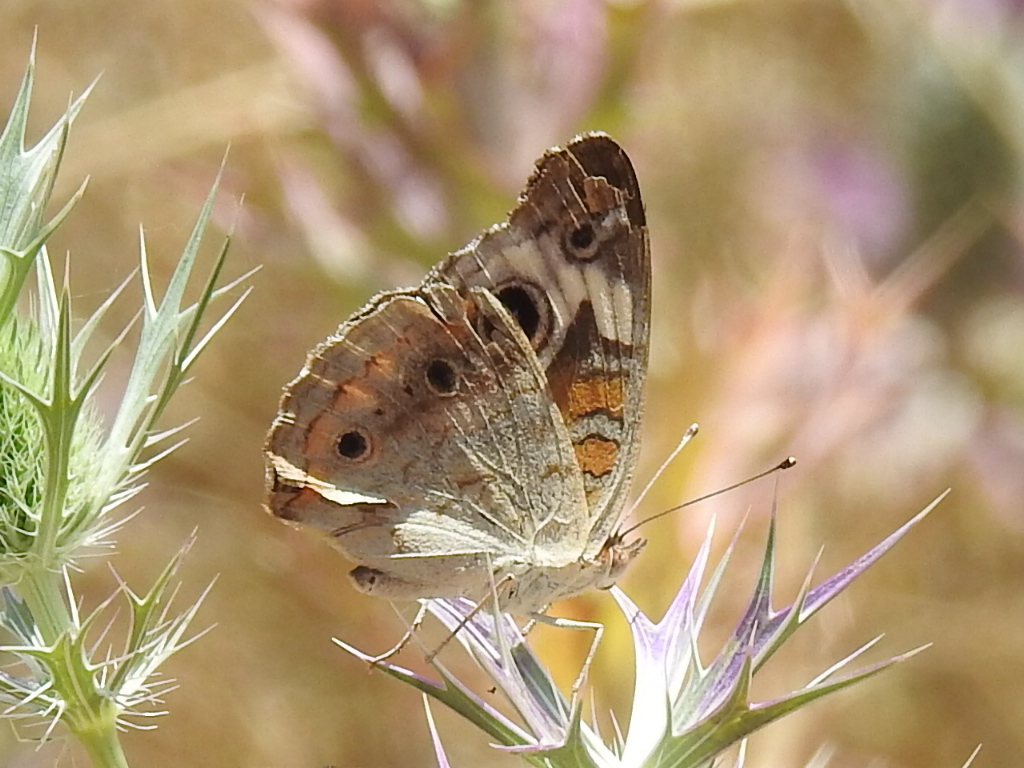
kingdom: Animalia
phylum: Arthropoda
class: Insecta
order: Lepidoptera
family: Nymphalidae
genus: Junonia
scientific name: Junonia coenia
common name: Common buckeye
